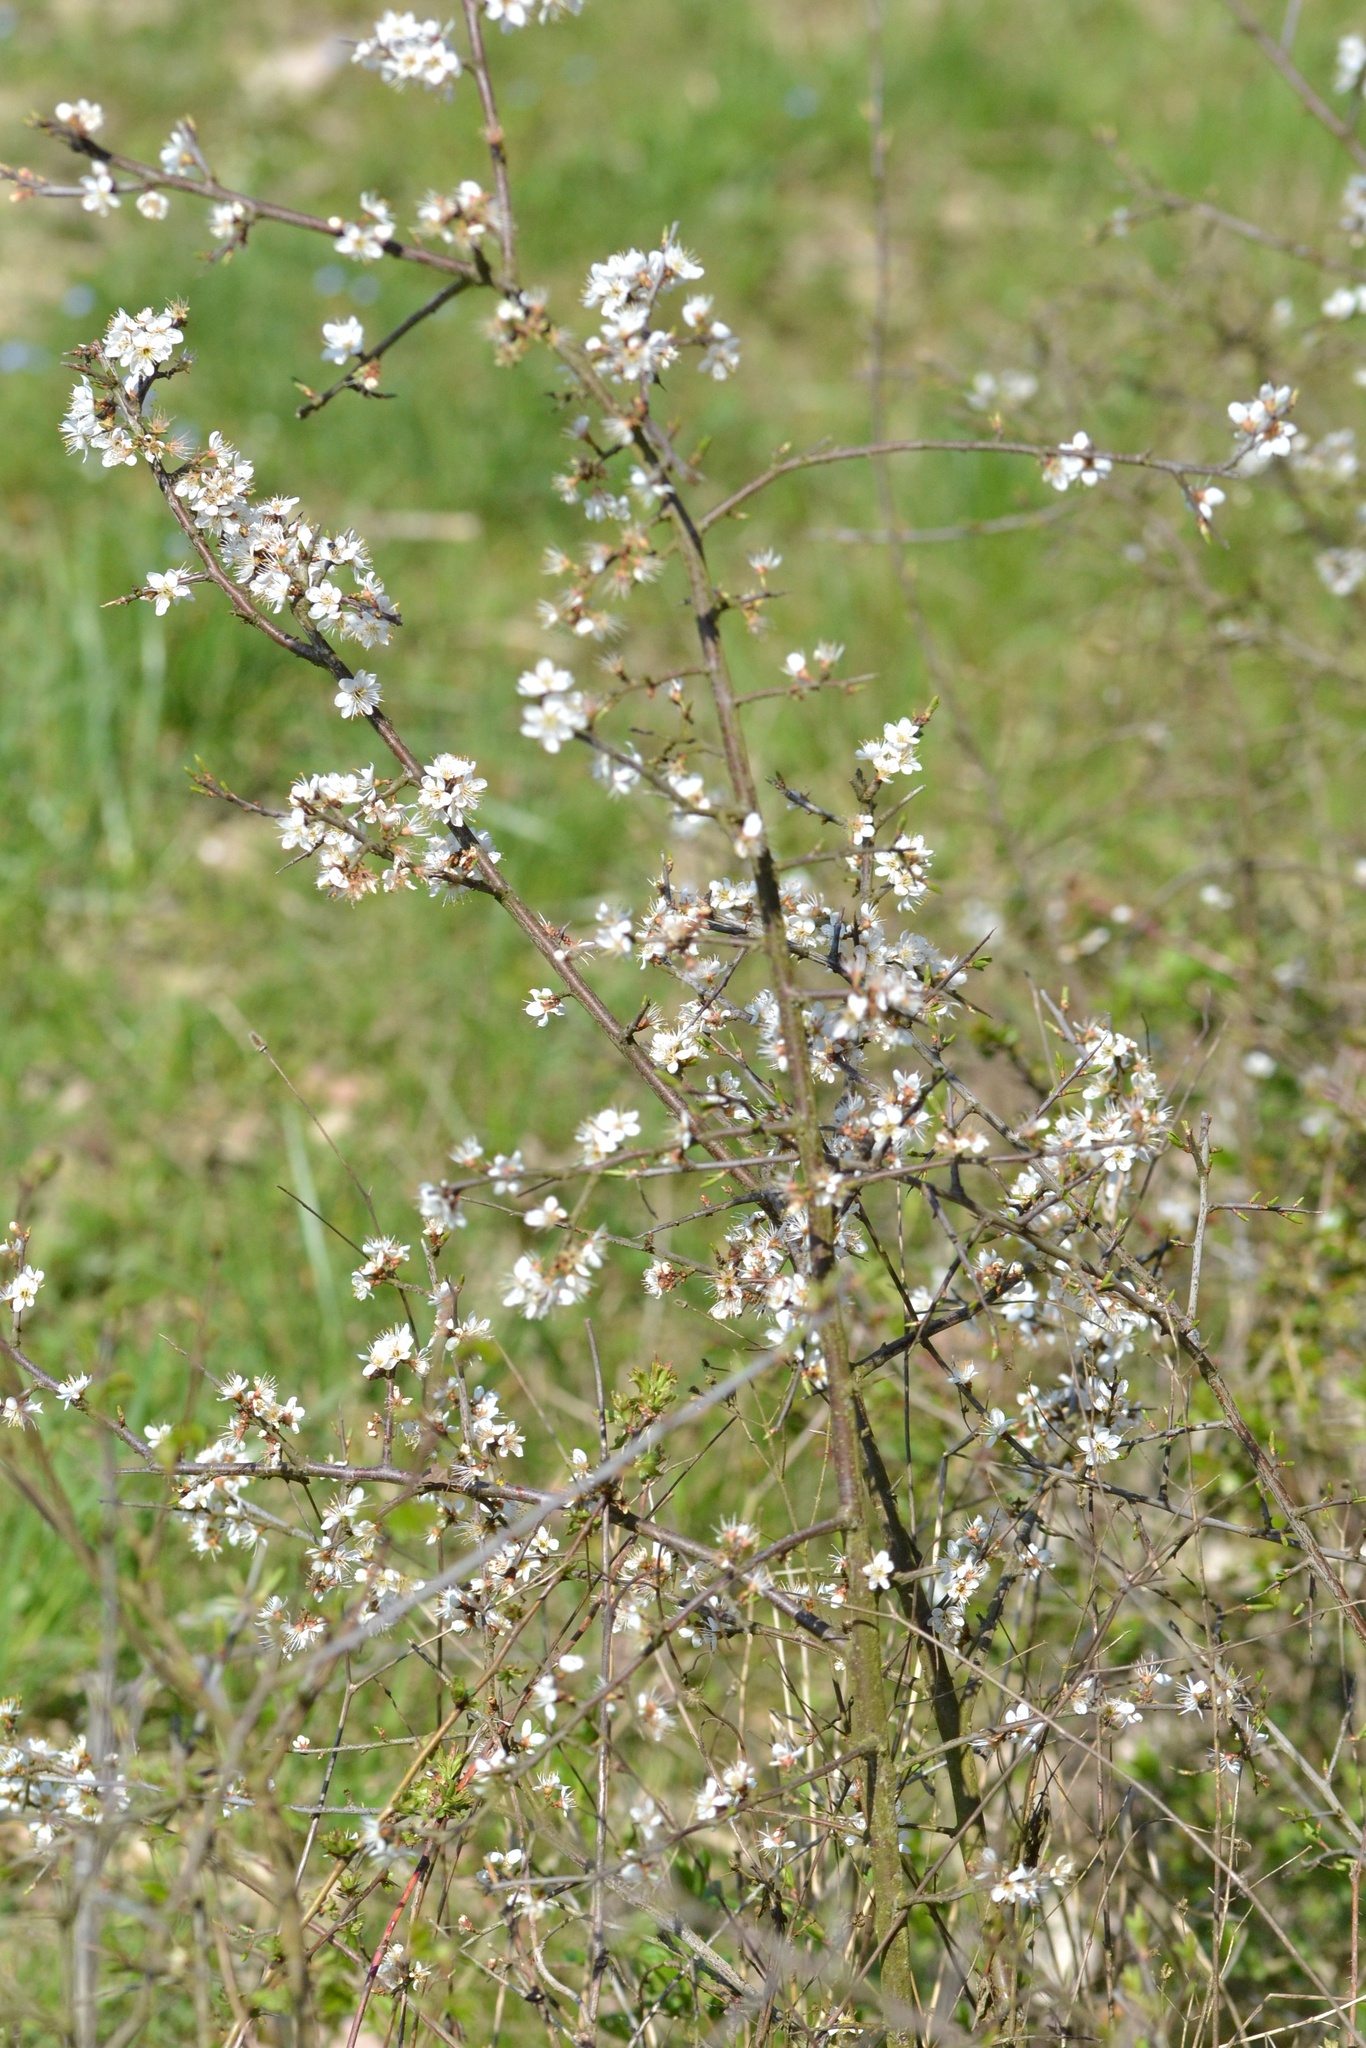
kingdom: Plantae
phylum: Tracheophyta
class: Magnoliopsida
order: Rosales
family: Rosaceae
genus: Prunus
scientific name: Prunus spinosa
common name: Blackthorn
